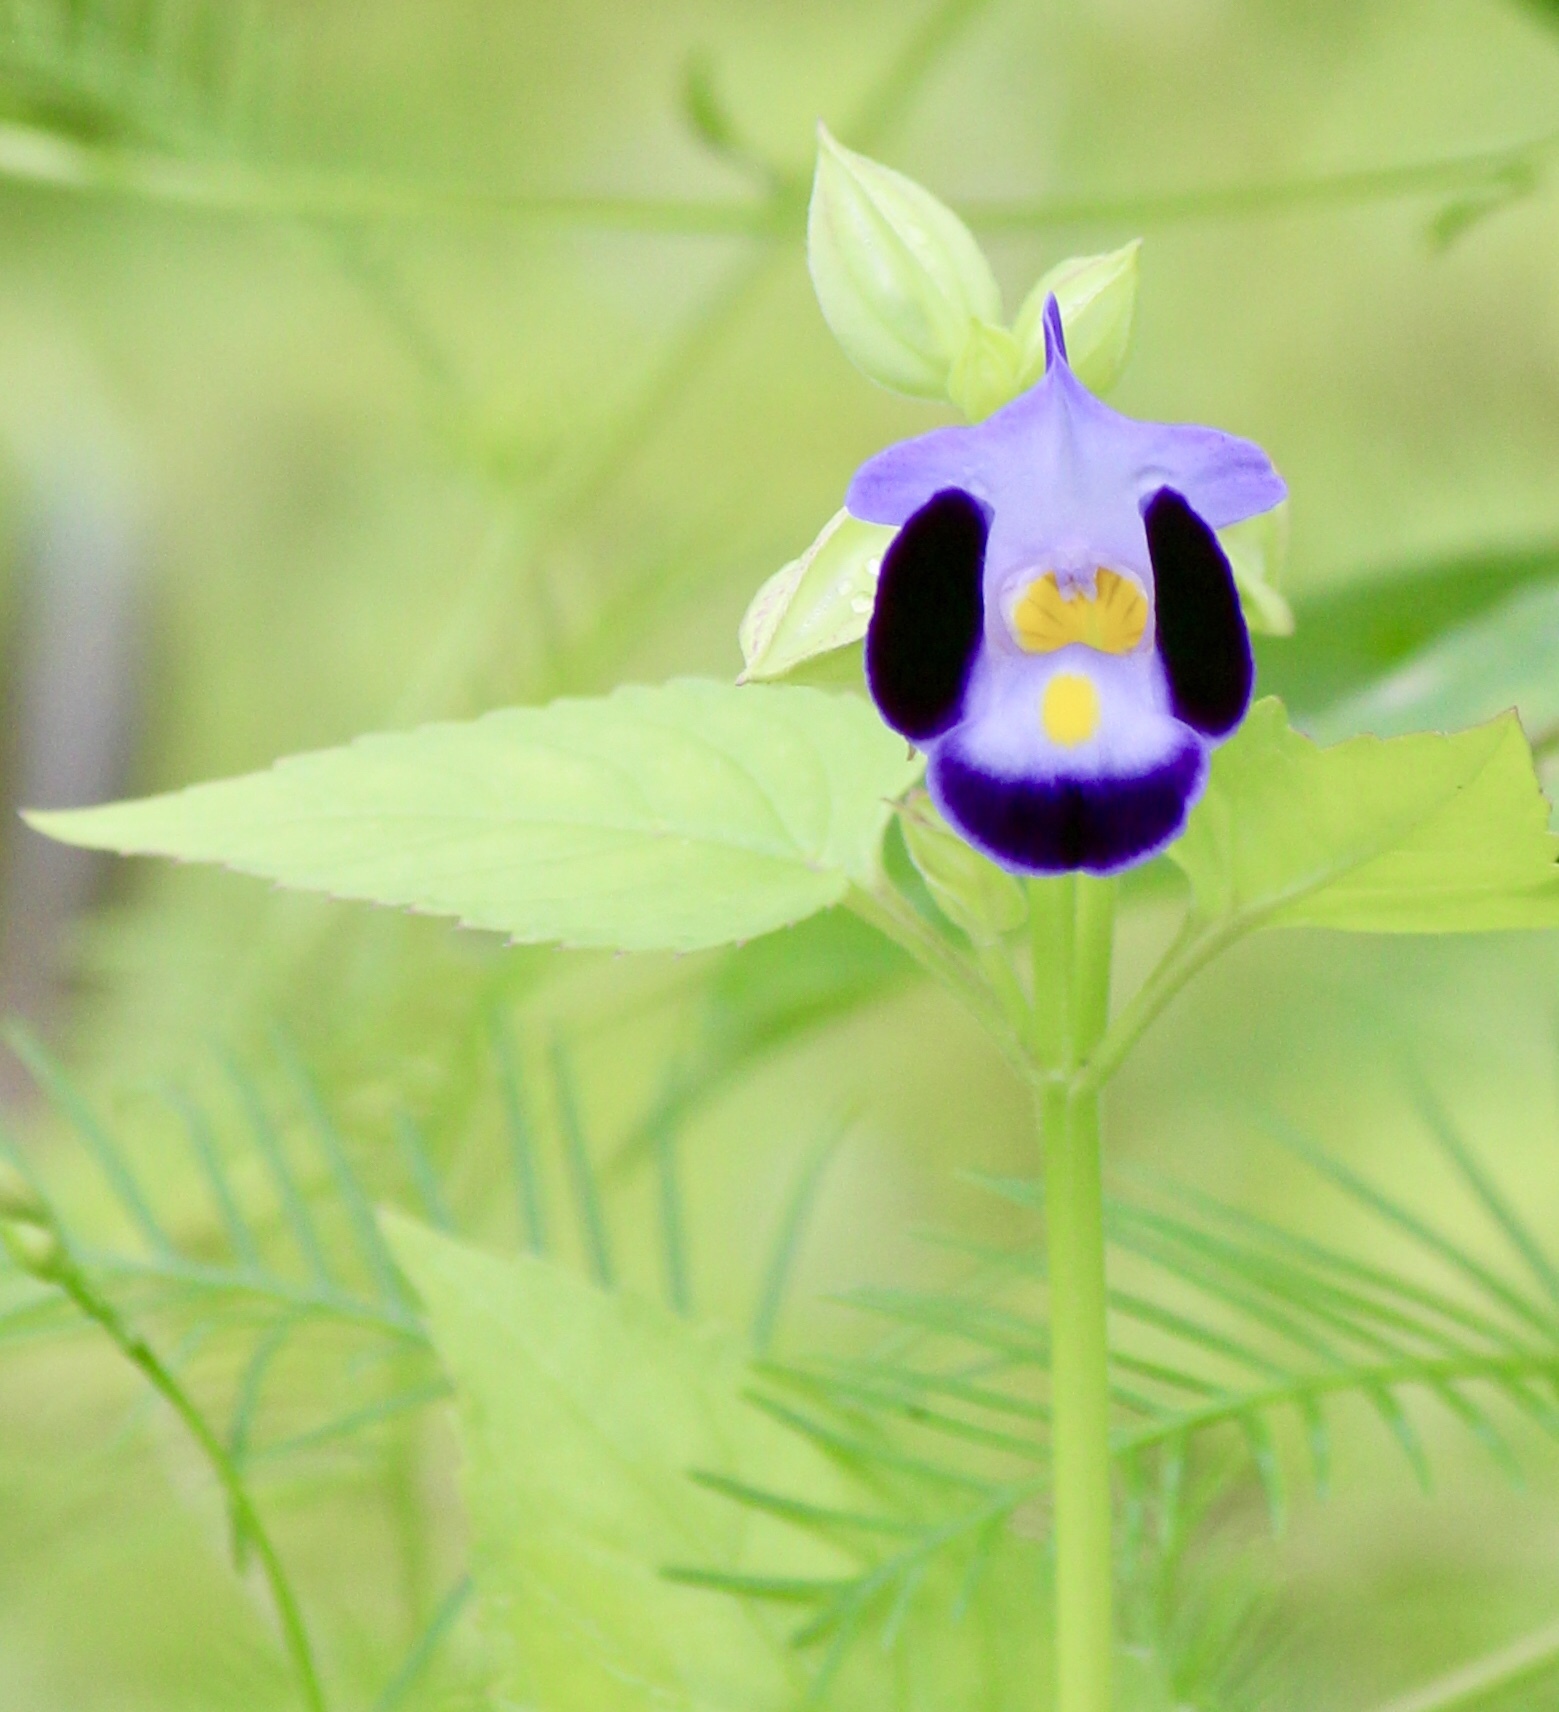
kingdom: Plantae
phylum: Tracheophyta
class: Magnoliopsida
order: Lamiales
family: Linderniaceae
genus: Torenia
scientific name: Torenia fournieri
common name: Bluewings
